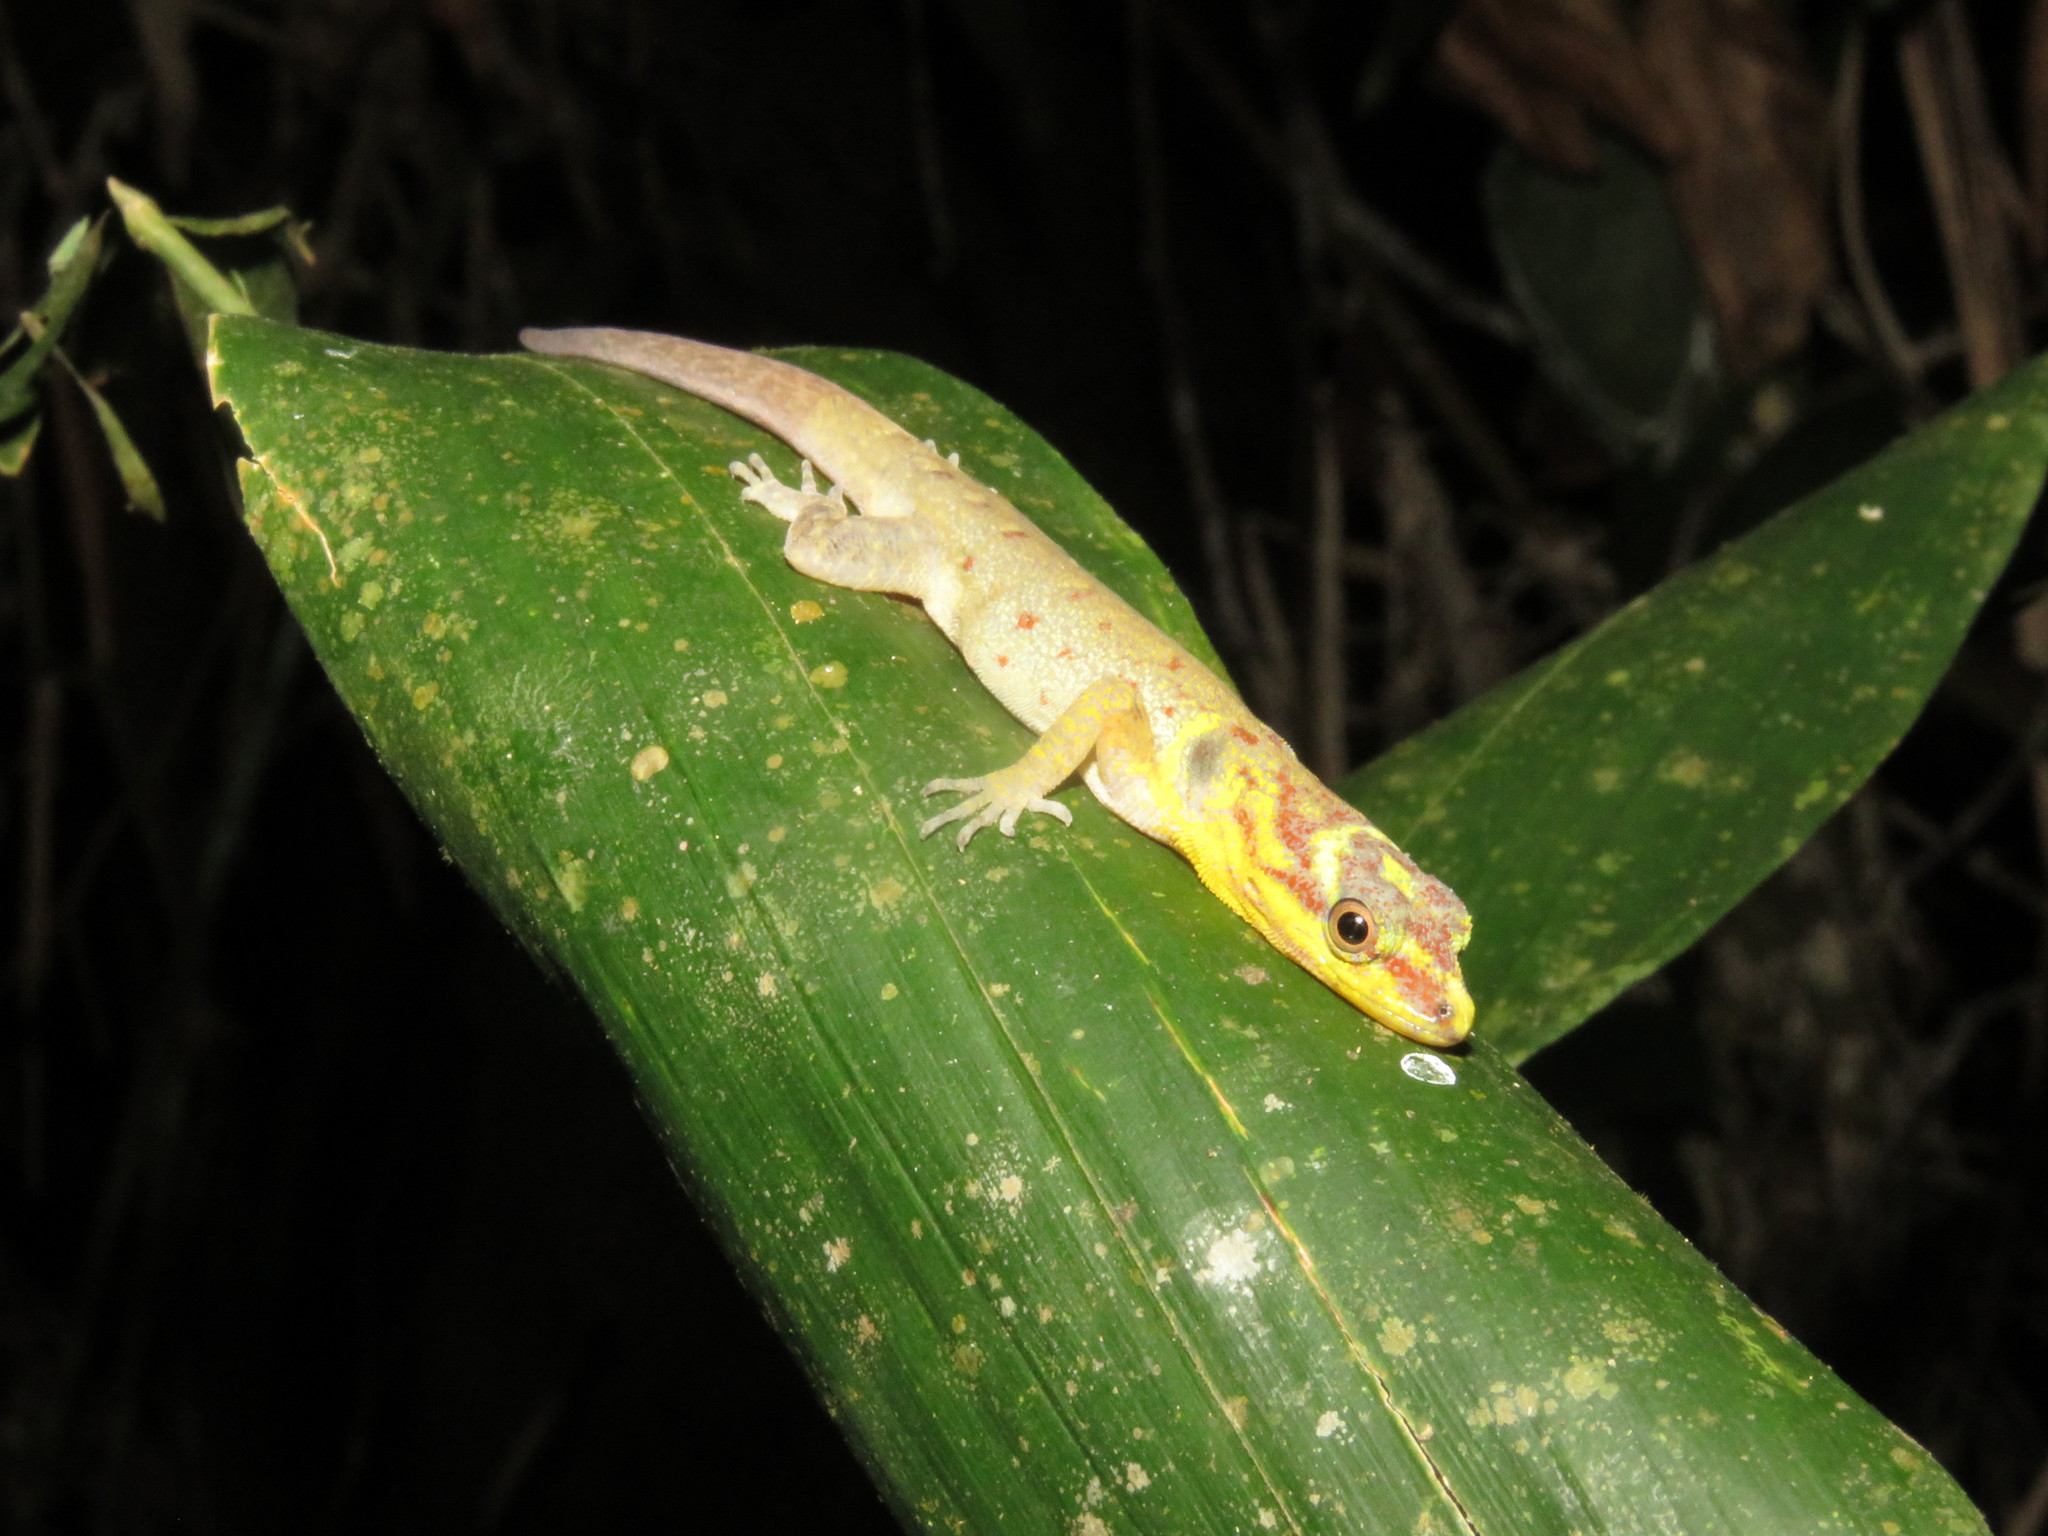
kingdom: Animalia
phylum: Chordata
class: Squamata
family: Sphaerodactylidae
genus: Gonatodes
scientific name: Gonatodes humeralis
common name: South american clawed gecko
